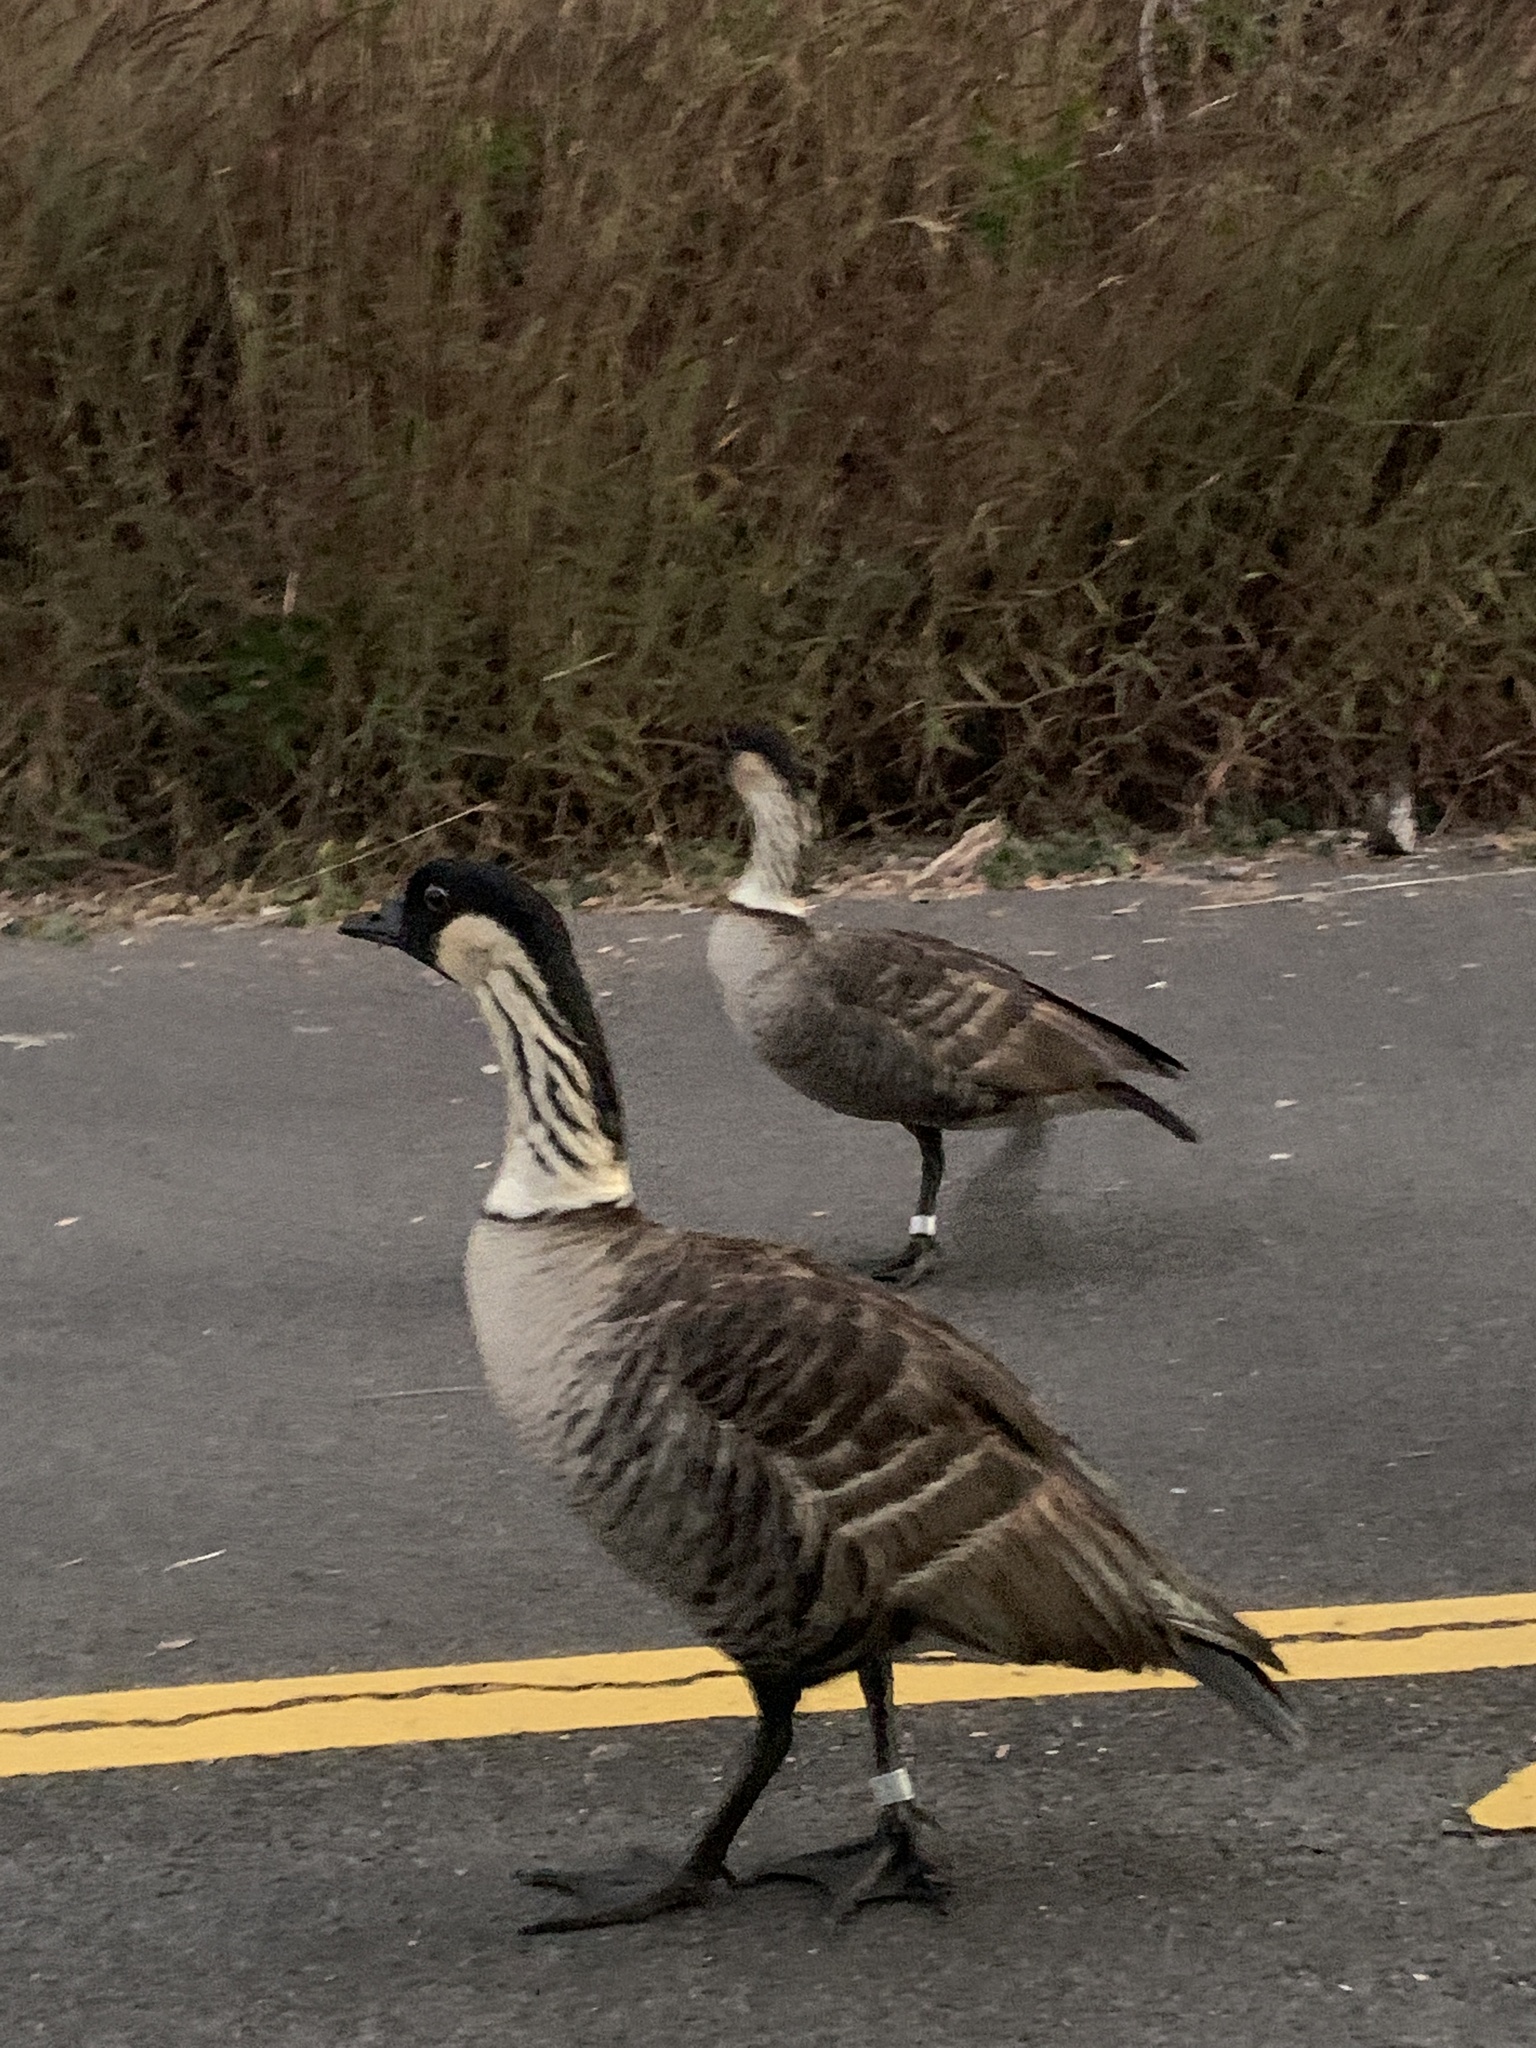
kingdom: Animalia
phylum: Chordata
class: Aves
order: Anseriformes
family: Anatidae
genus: Branta
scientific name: Branta sandvicensis
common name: Nene
